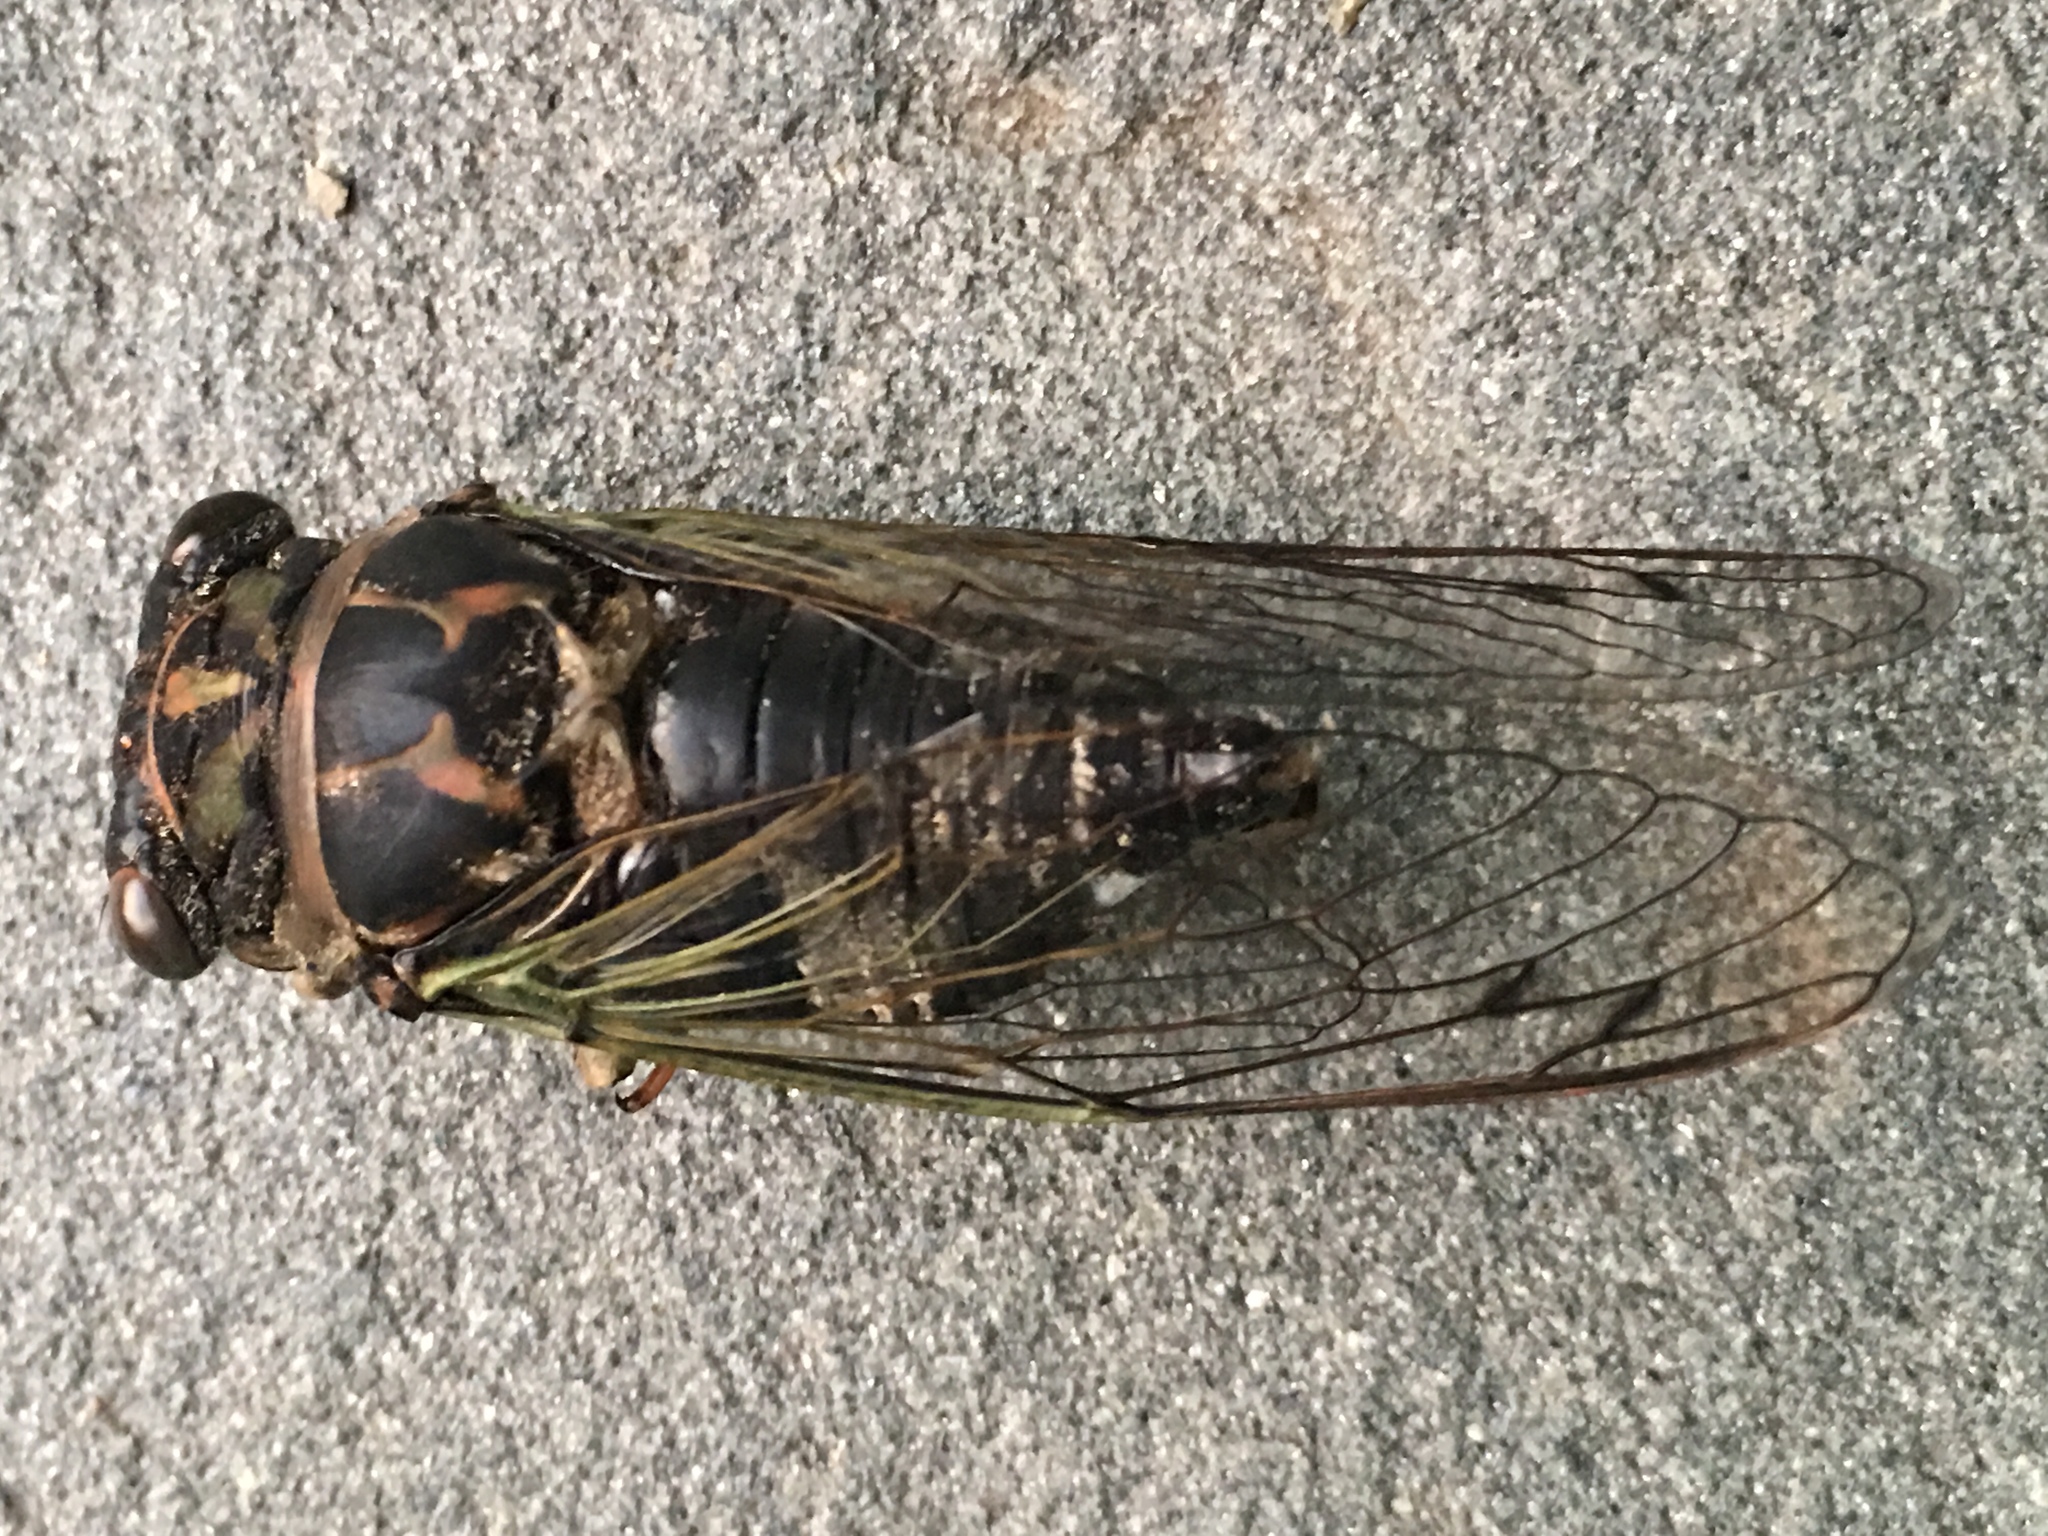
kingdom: Animalia
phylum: Arthropoda
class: Insecta
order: Hemiptera
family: Cicadidae
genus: Neotibicen
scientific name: Neotibicen canicularis
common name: God-day cicada
